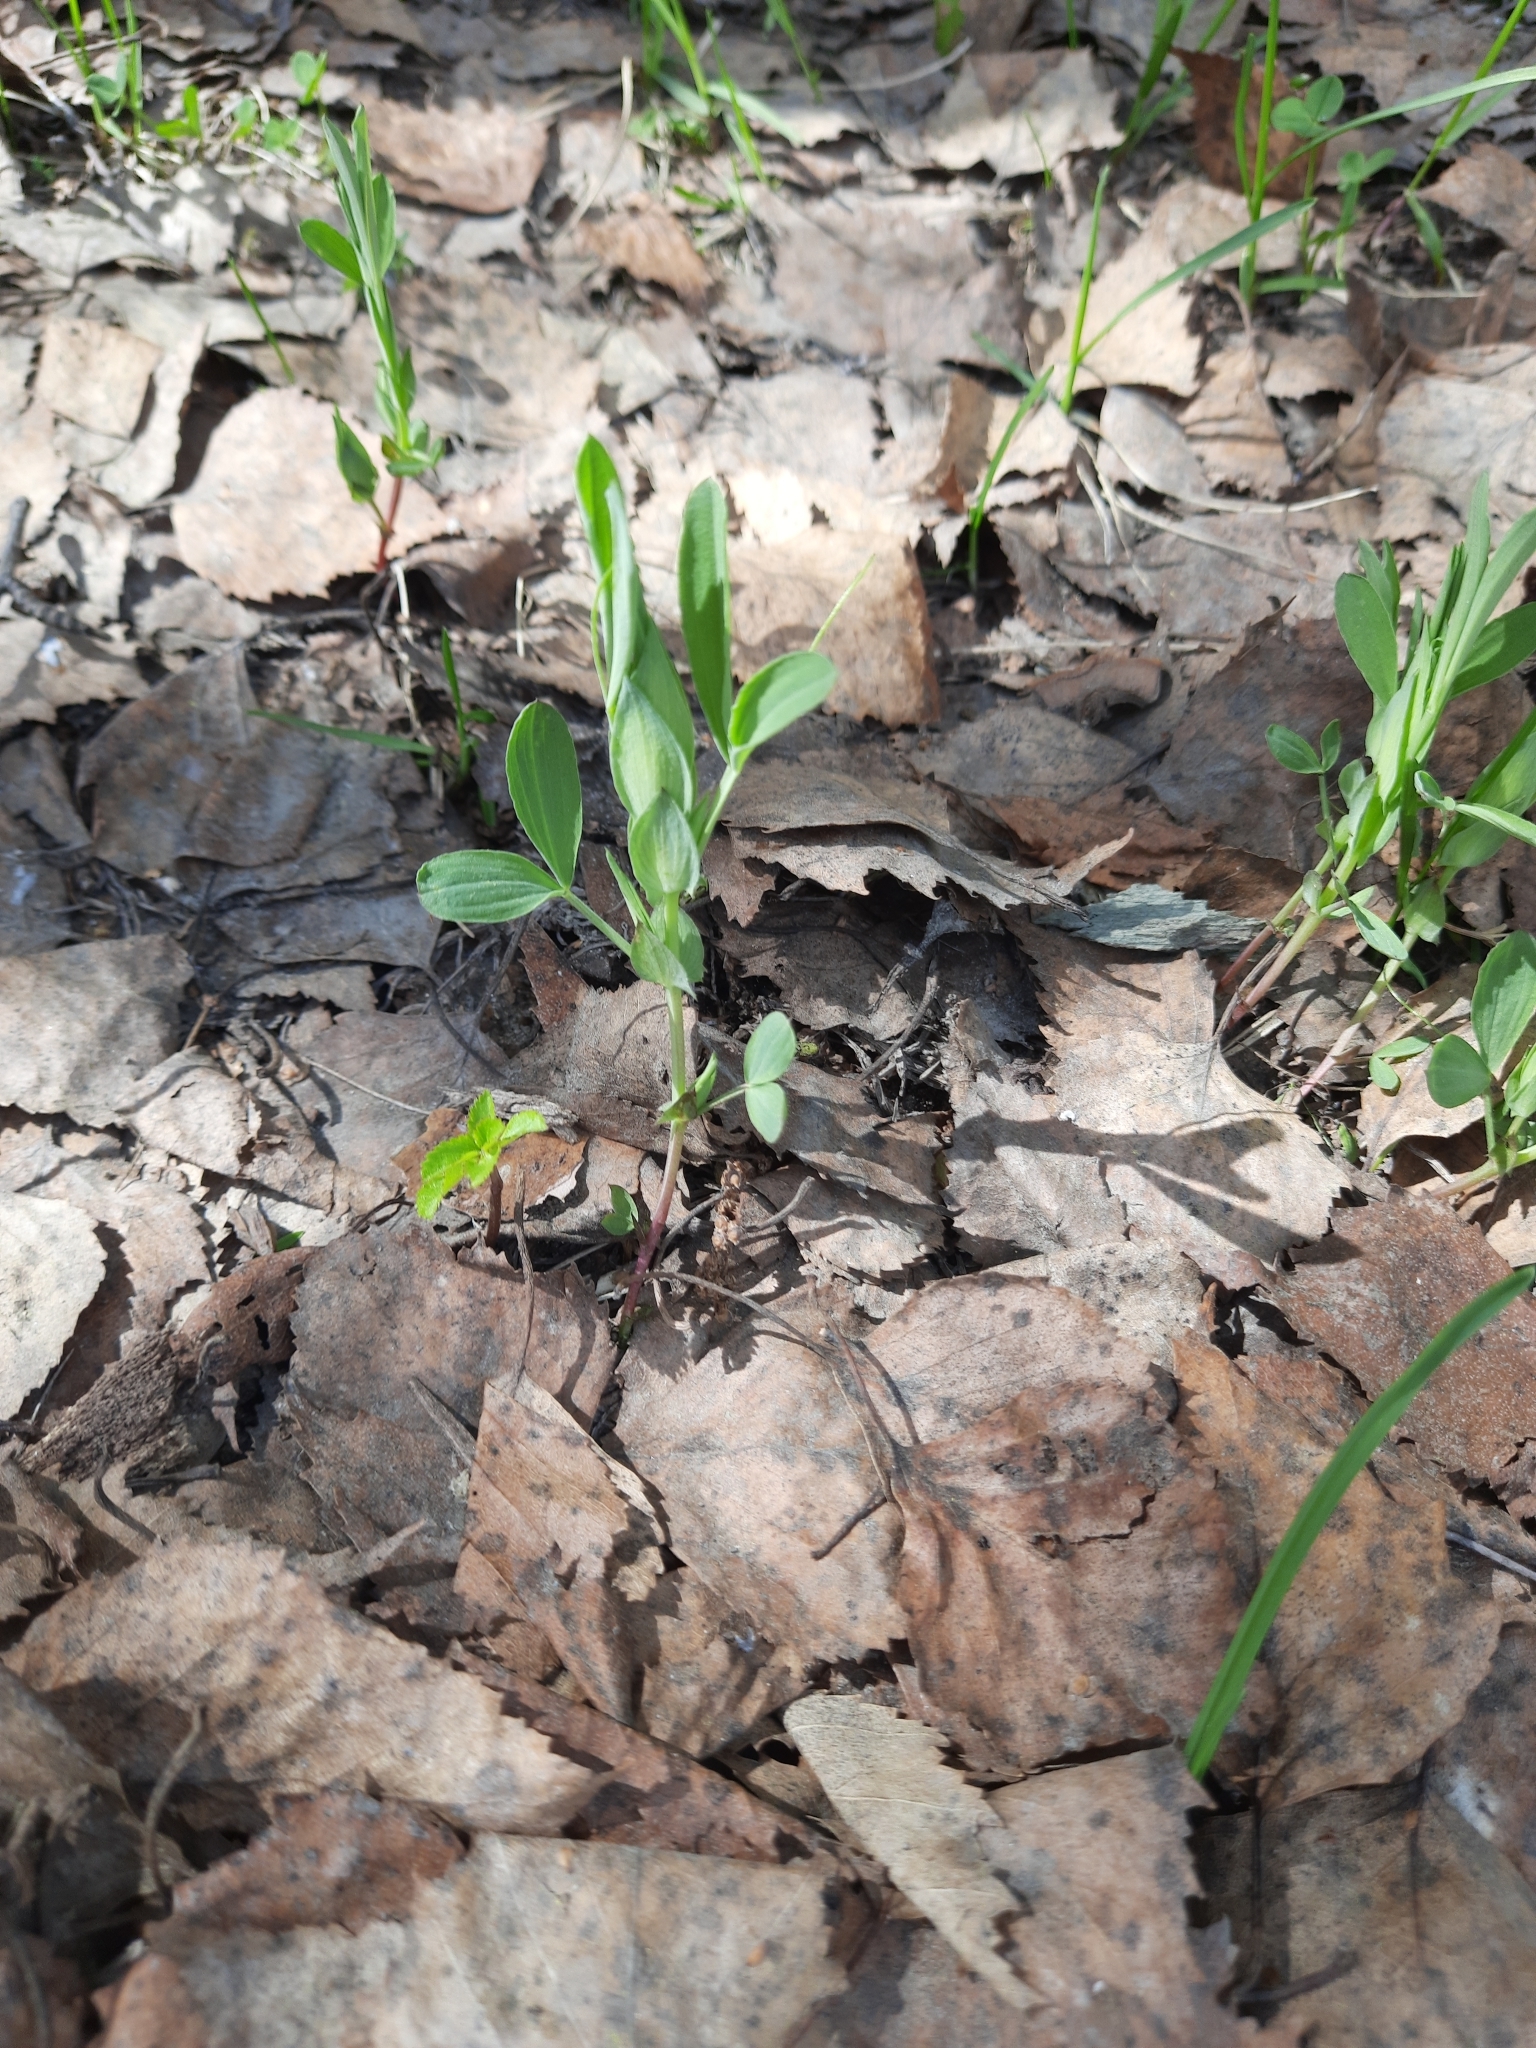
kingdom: Plantae
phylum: Tracheophyta
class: Magnoliopsida
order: Fabales
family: Fabaceae
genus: Lathyrus
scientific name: Lathyrus pratensis
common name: Meadow vetchling
